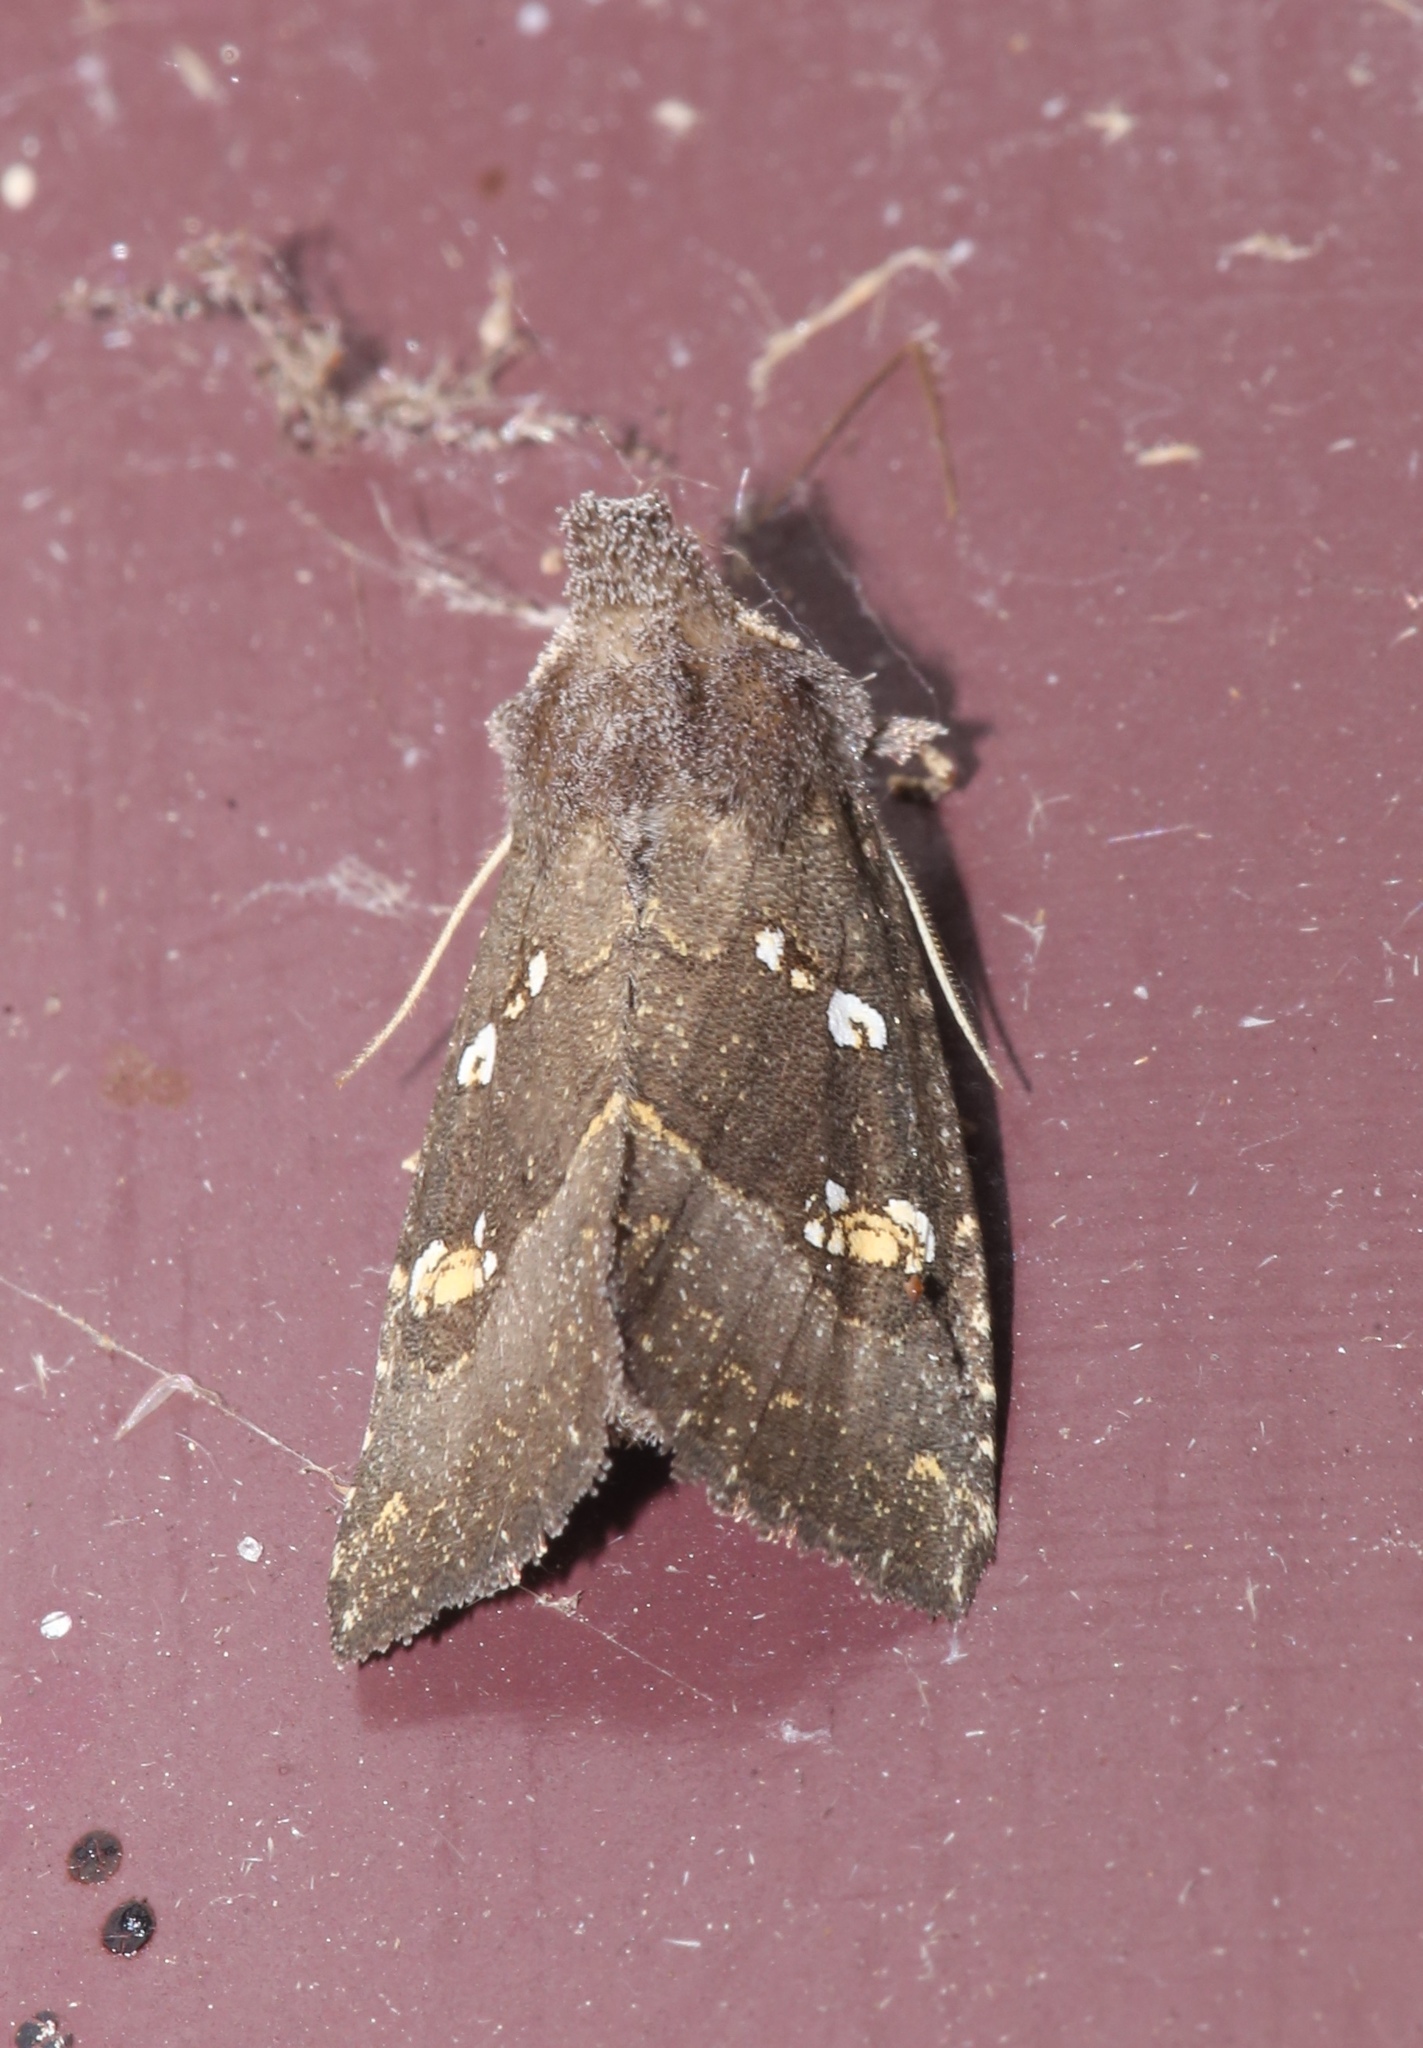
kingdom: Animalia
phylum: Arthropoda
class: Insecta
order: Lepidoptera
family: Noctuidae
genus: Papaipema
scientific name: Papaipema nebris
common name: Stalk borer
